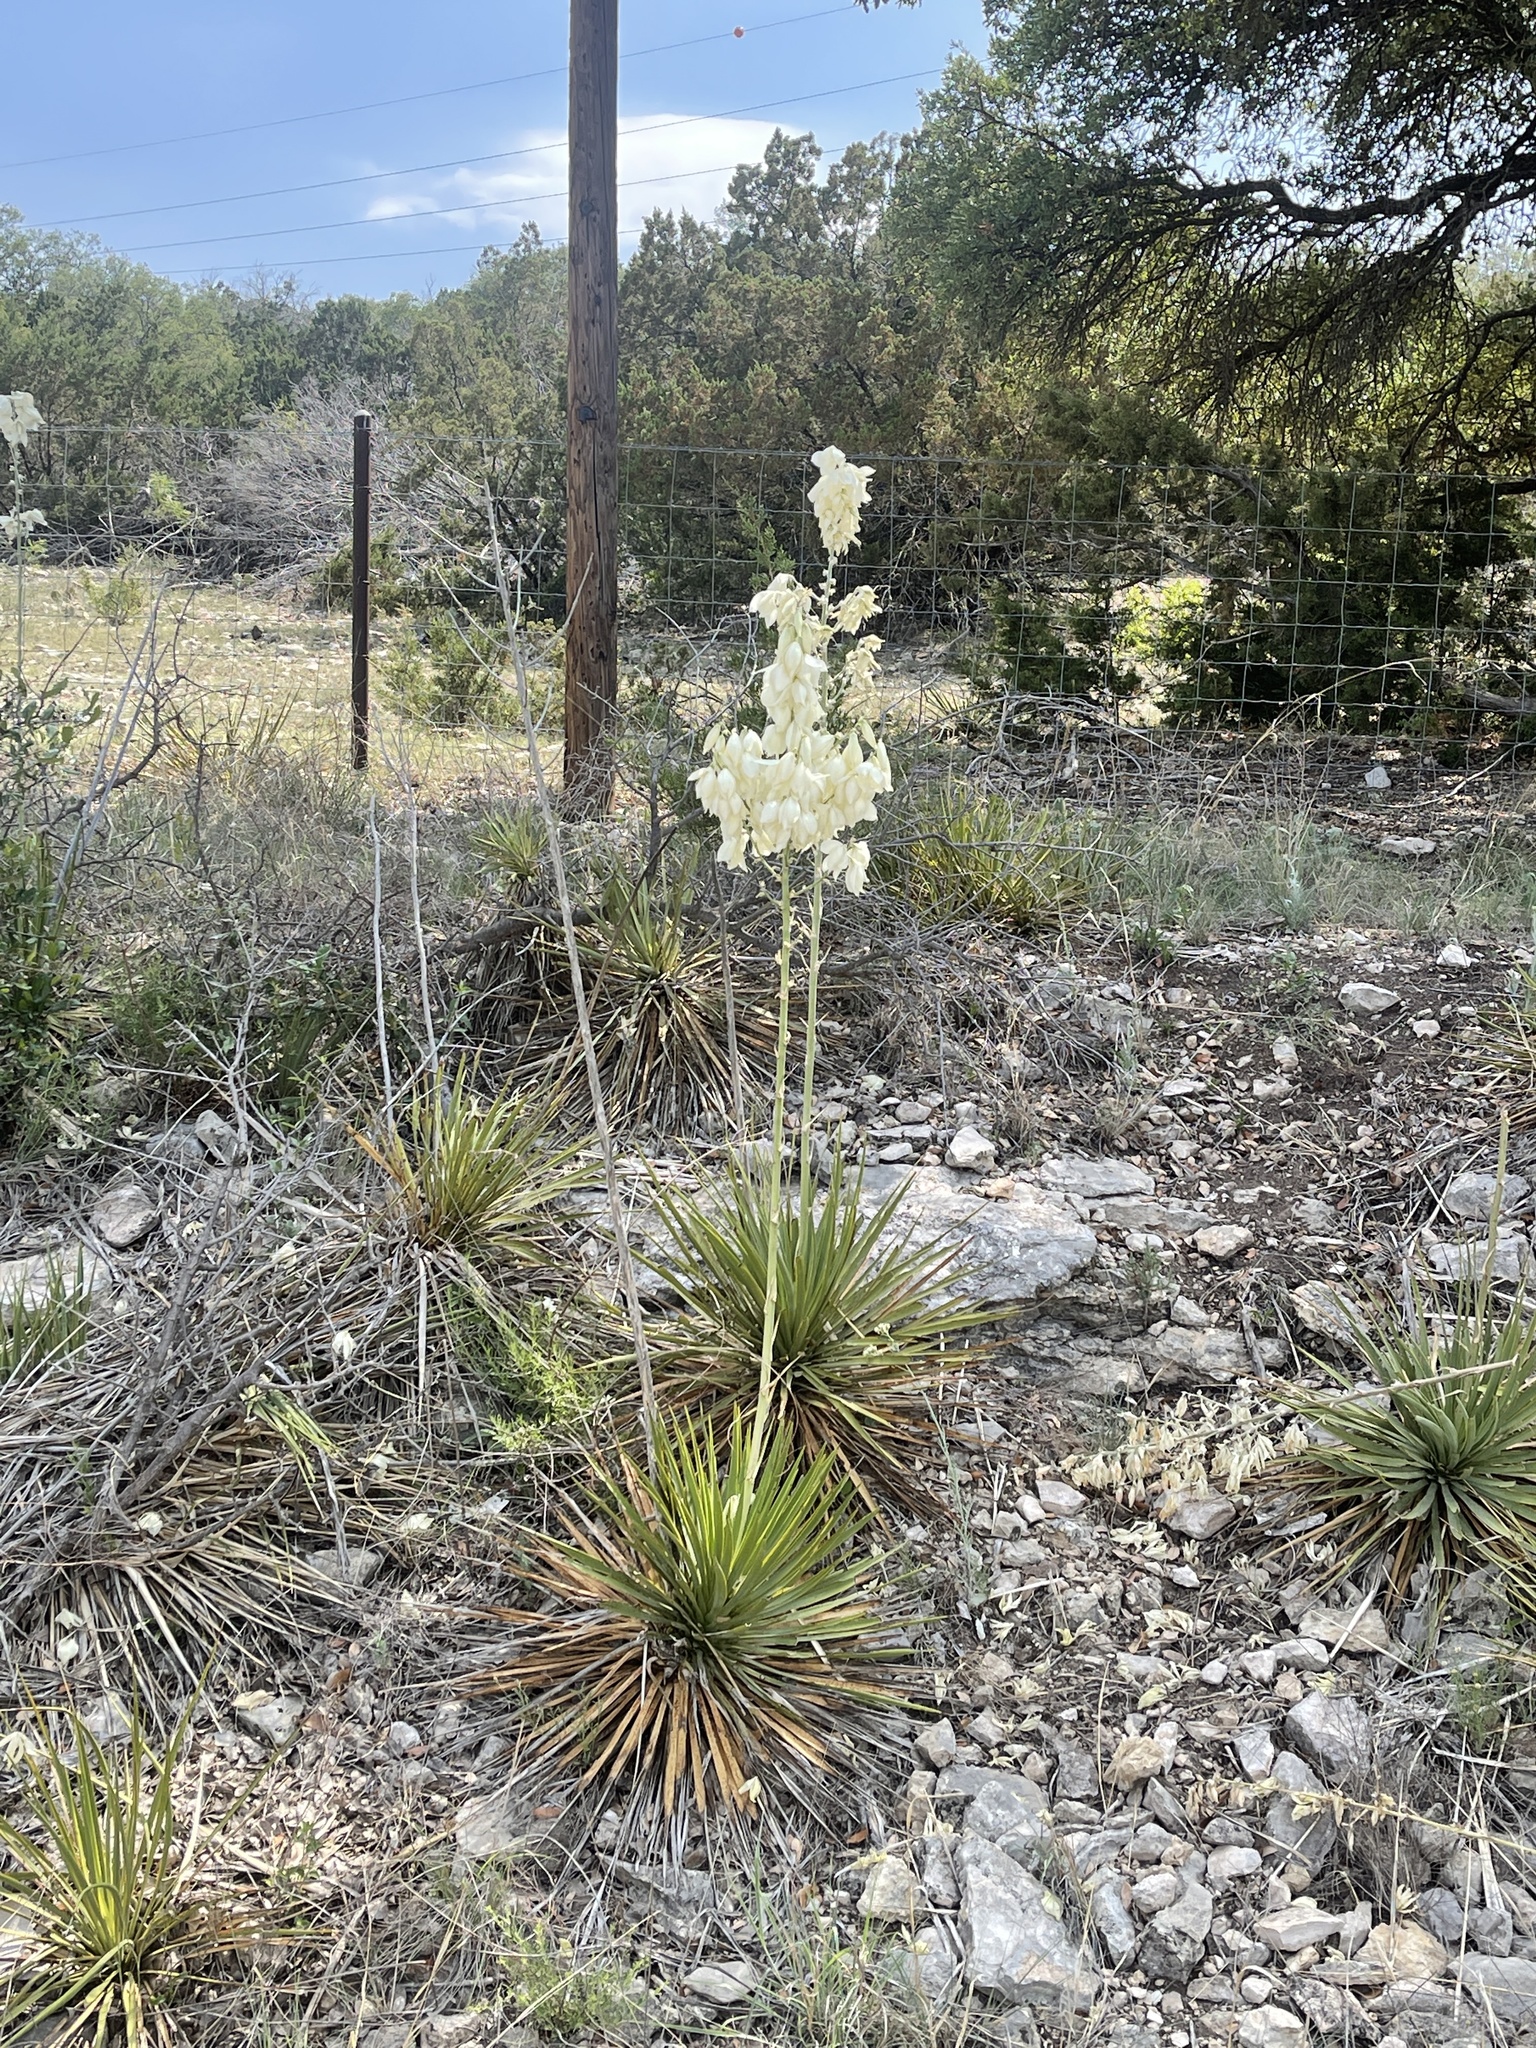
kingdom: Plantae
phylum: Tracheophyta
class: Liliopsida
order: Asparagales
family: Asparagaceae
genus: Yucca
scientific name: Yucca reverchonii
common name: San angelo yucca
